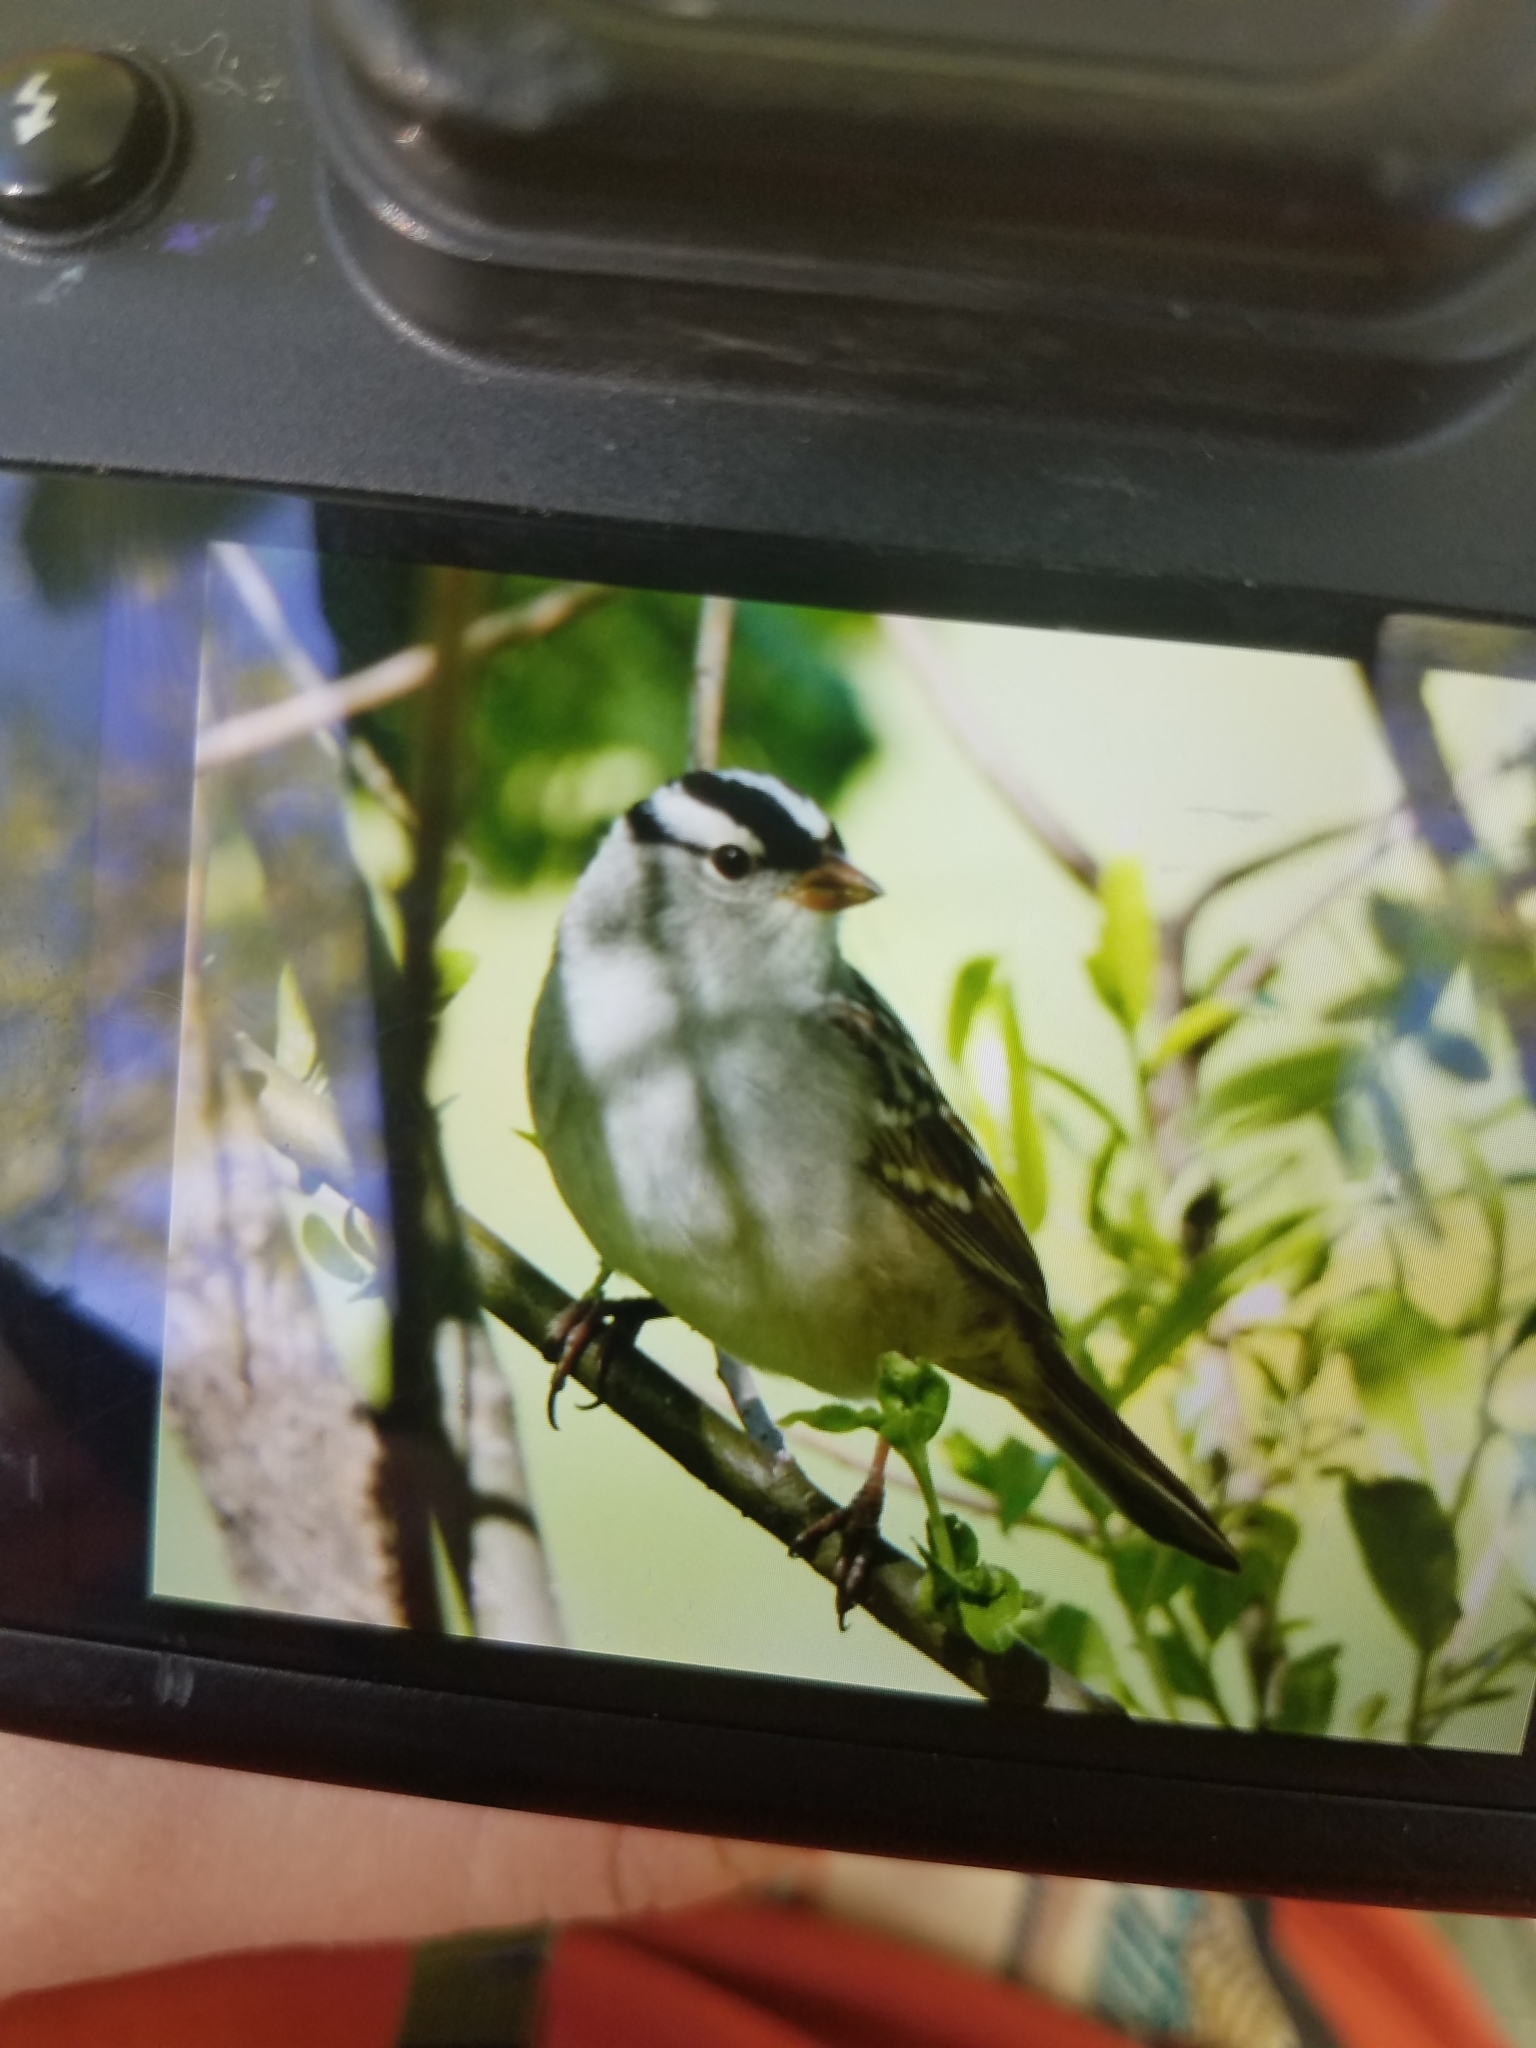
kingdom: Animalia
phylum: Chordata
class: Aves
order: Passeriformes
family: Passerellidae
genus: Zonotrichia
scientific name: Zonotrichia leucophrys
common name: White-crowned sparrow
